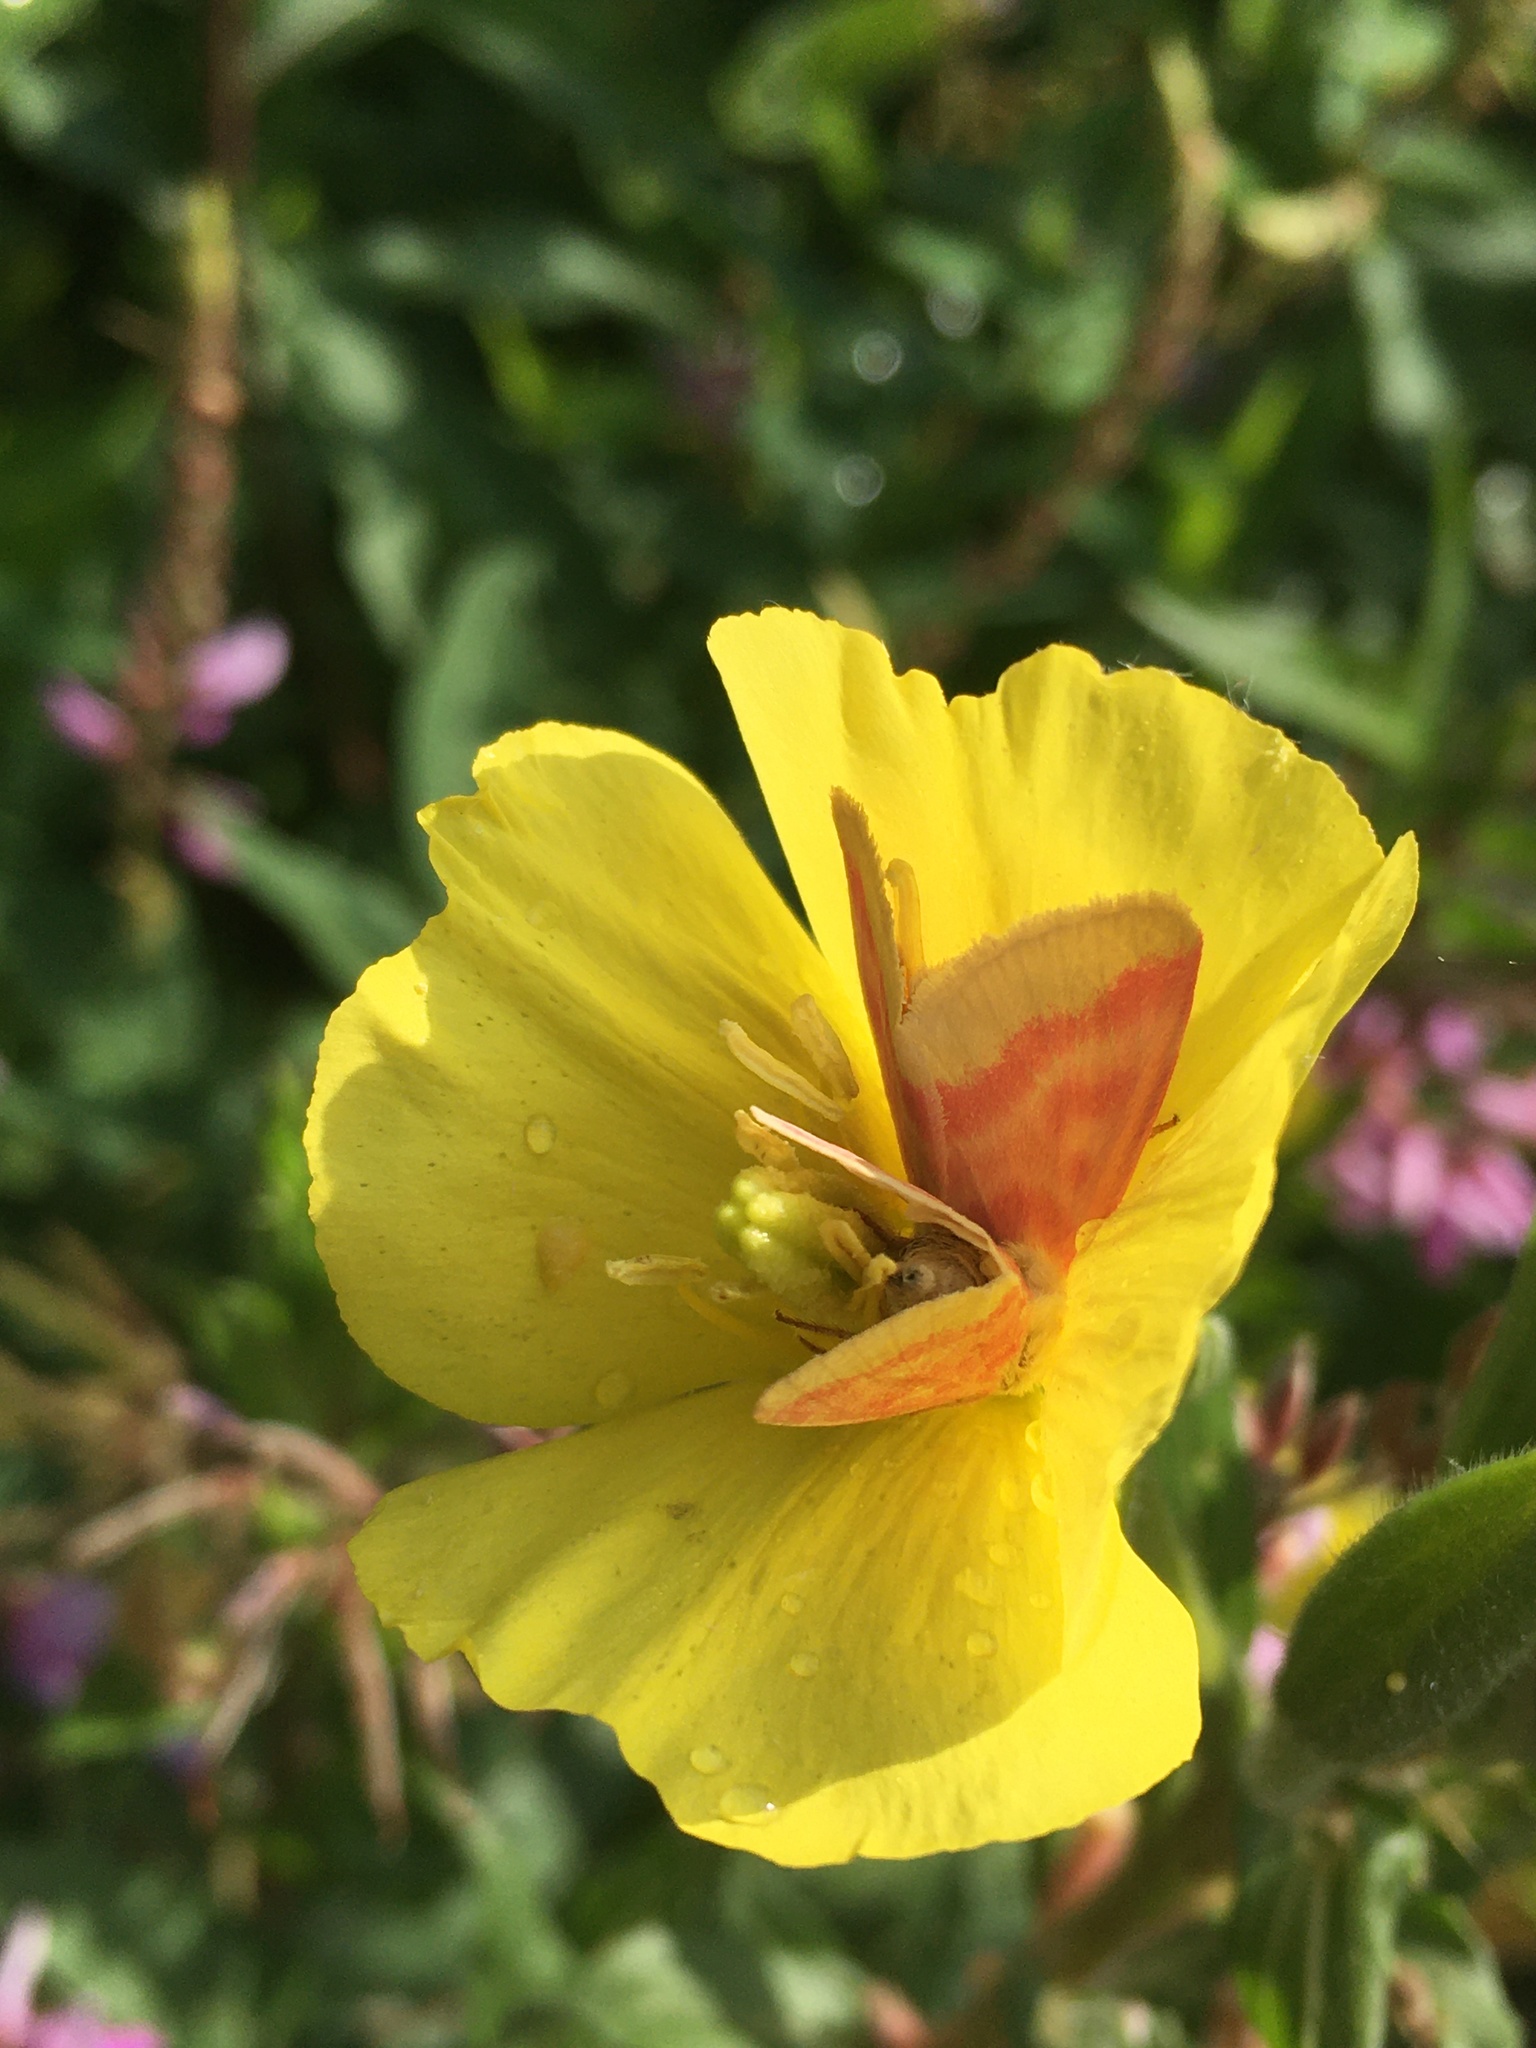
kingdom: Animalia
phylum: Arthropoda
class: Insecta
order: Lepidoptera
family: Noctuidae
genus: Schinia
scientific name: Schinia florida
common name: Primrose moth
